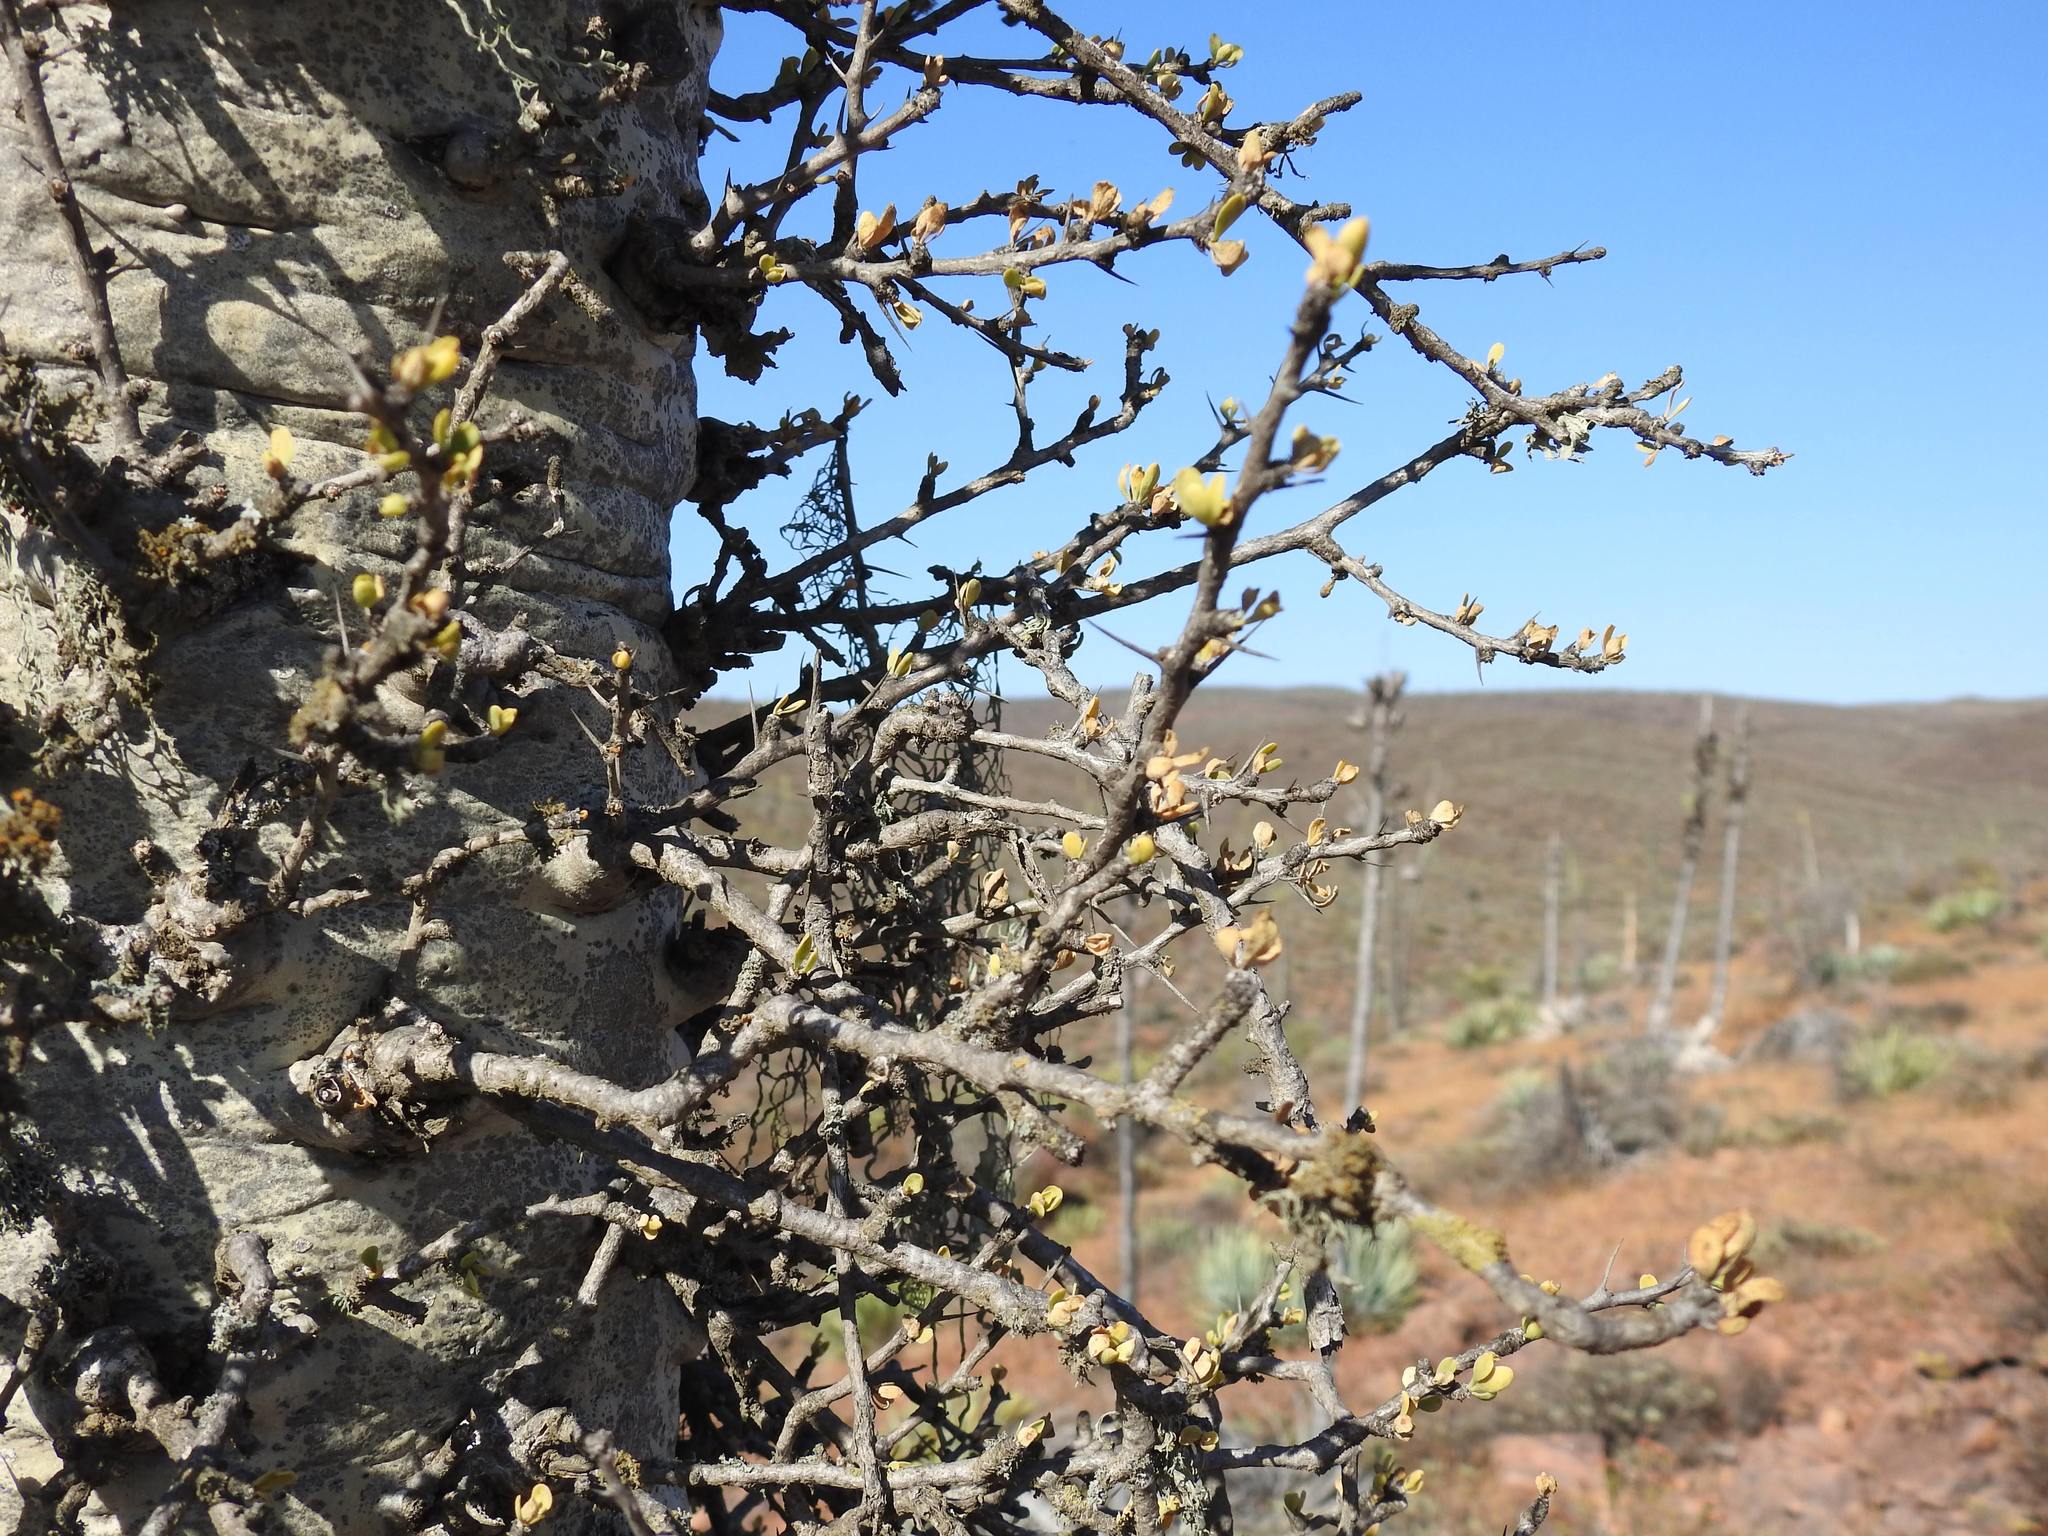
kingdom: Plantae
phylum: Tracheophyta
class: Magnoliopsida
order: Ericales
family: Fouquieriaceae
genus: Fouquieria
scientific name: Fouquieria columnaris
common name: Boojumtree
